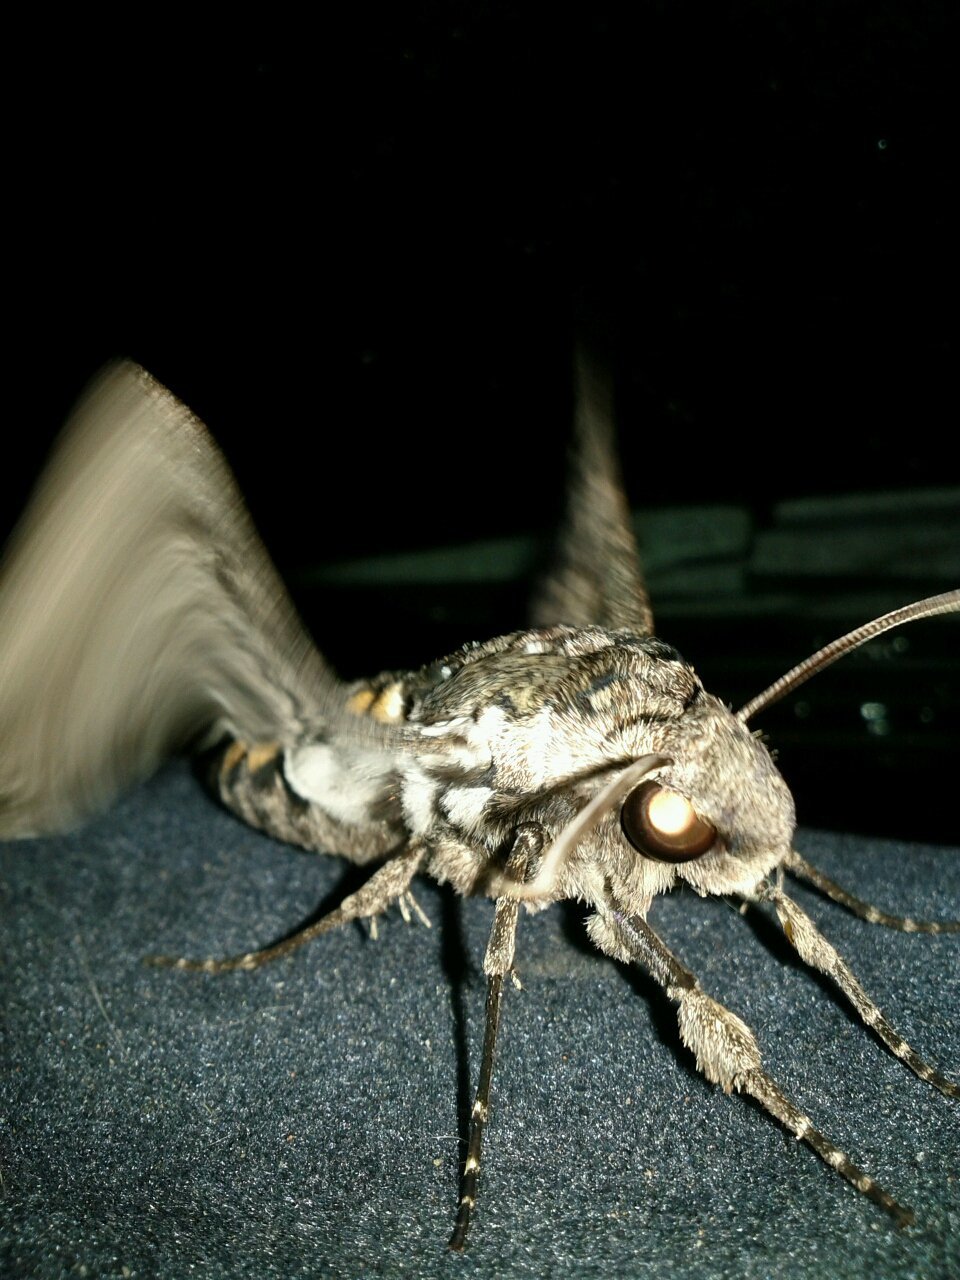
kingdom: Animalia
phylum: Arthropoda
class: Insecta
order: Lepidoptera
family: Sphingidae
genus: Manduca
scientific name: Manduca sexta
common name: Carolina sphinx
